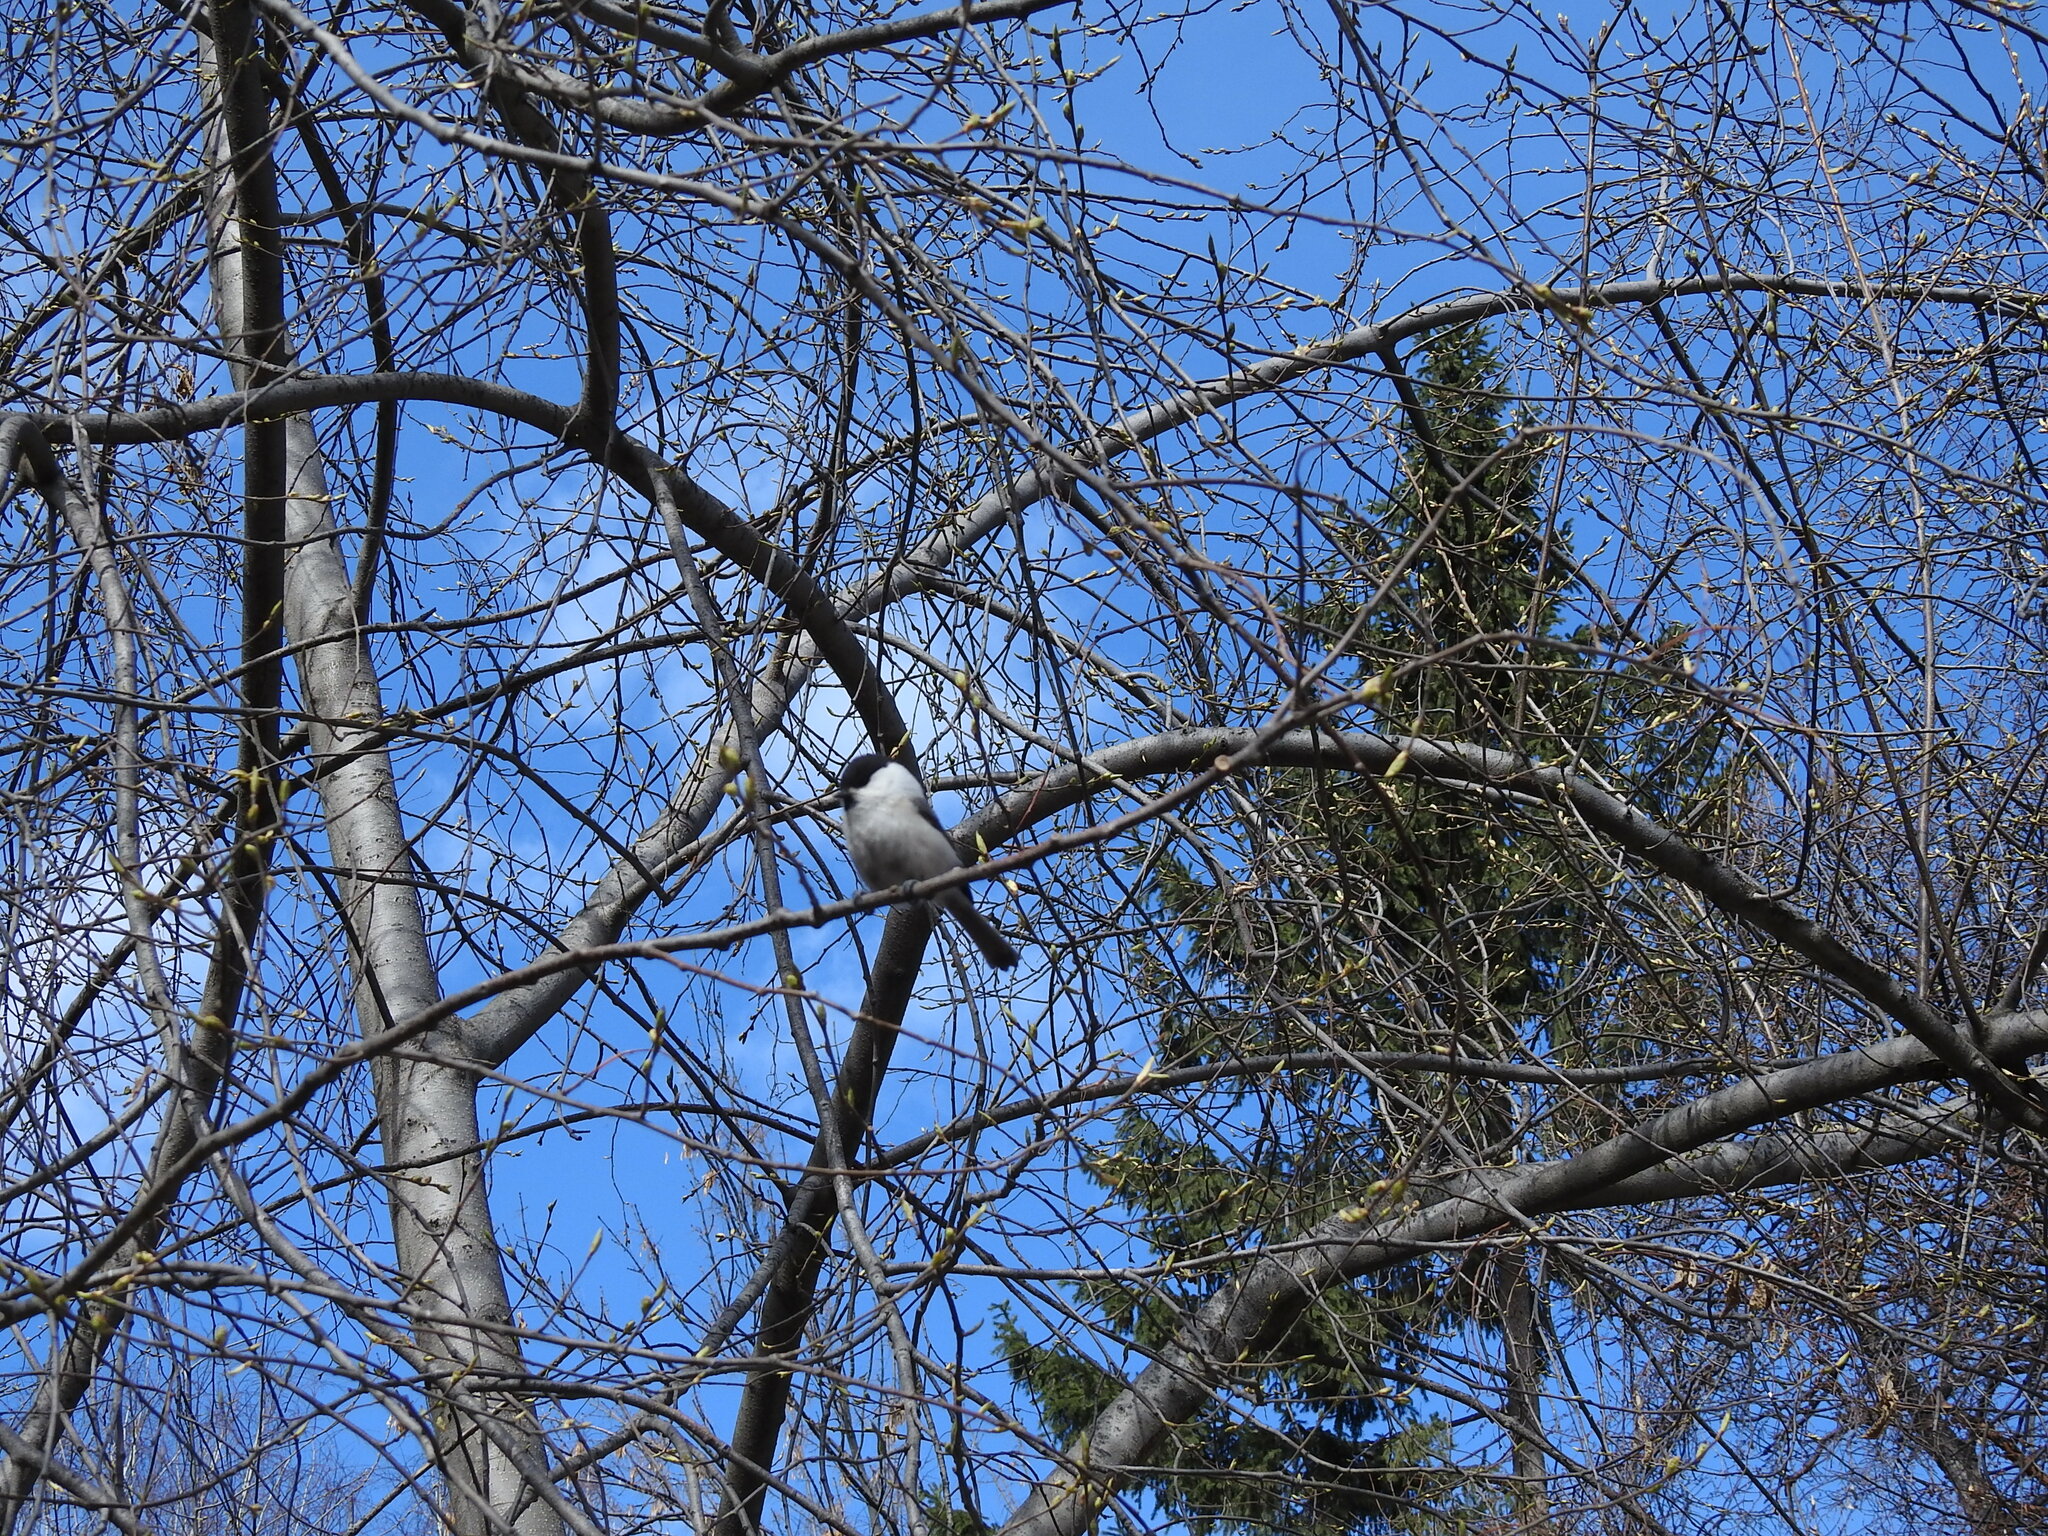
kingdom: Animalia
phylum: Chordata
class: Aves
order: Passeriformes
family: Paridae
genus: Poecile
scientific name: Poecile montanus
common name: Willow tit
